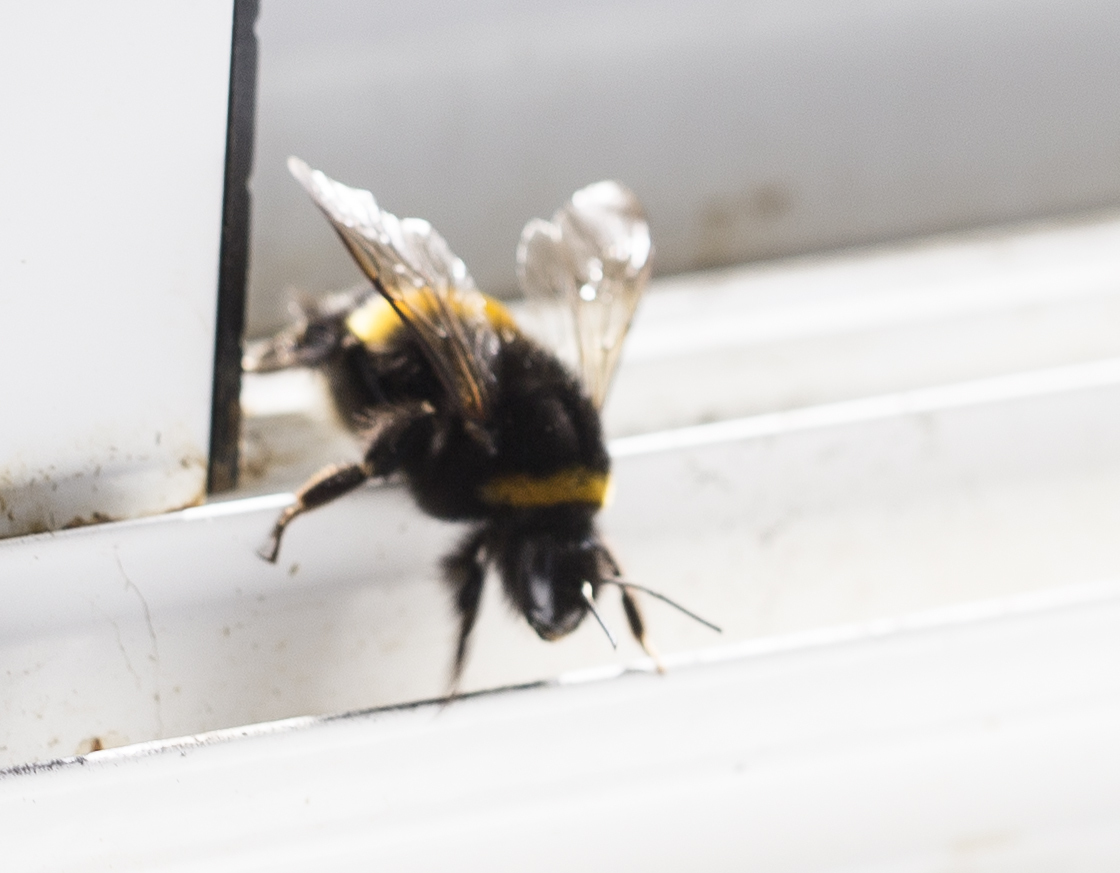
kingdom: Animalia
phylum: Arthropoda
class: Insecta
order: Hymenoptera
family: Apidae
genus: Bombus
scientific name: Bombus
